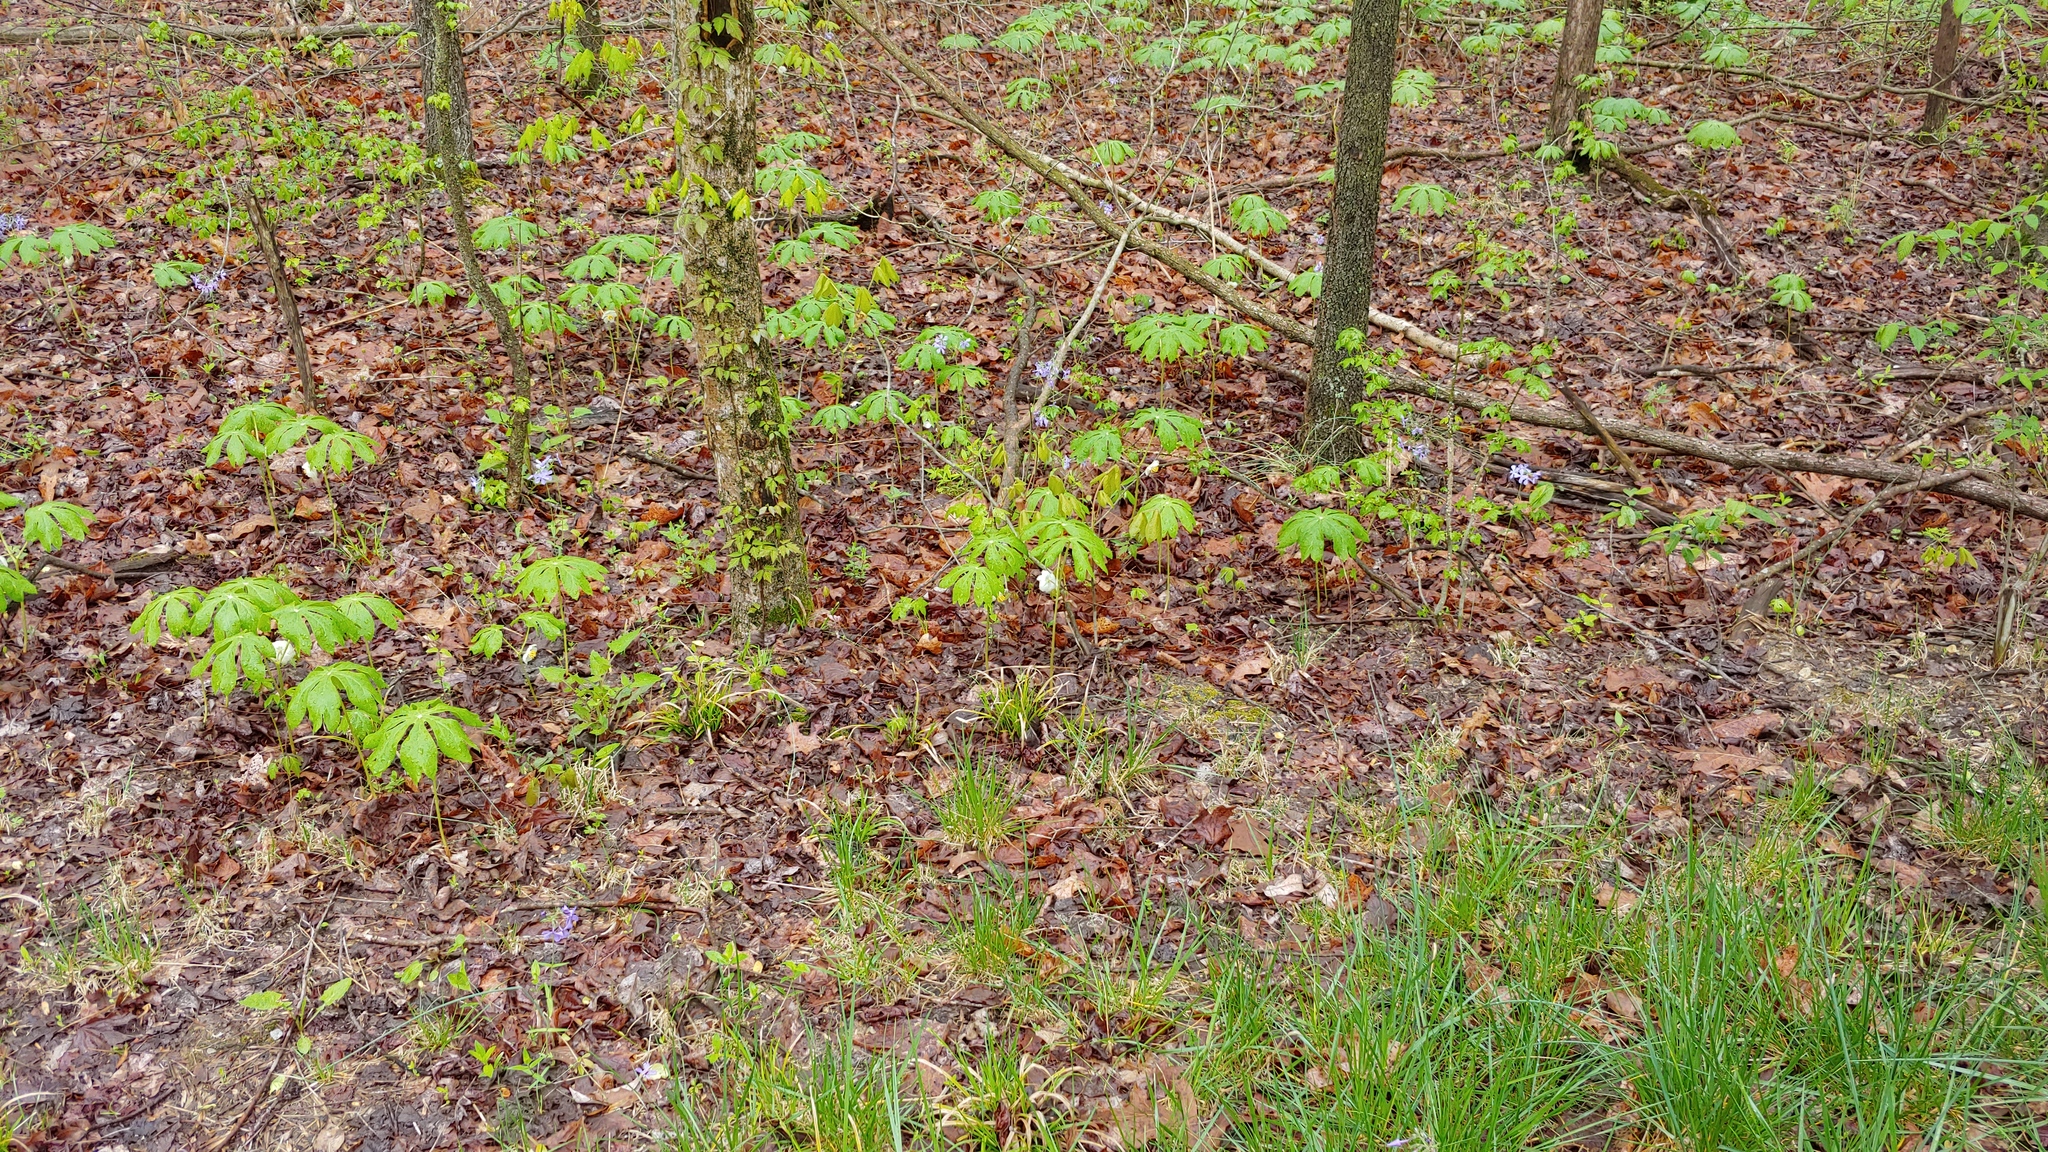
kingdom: Plantae
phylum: Tracheophyta
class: Magnoliopsida
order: Ranunculales
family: Berberidaceae
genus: Podophyllum
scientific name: Podophyllum peltatum
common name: Wild mandrake
